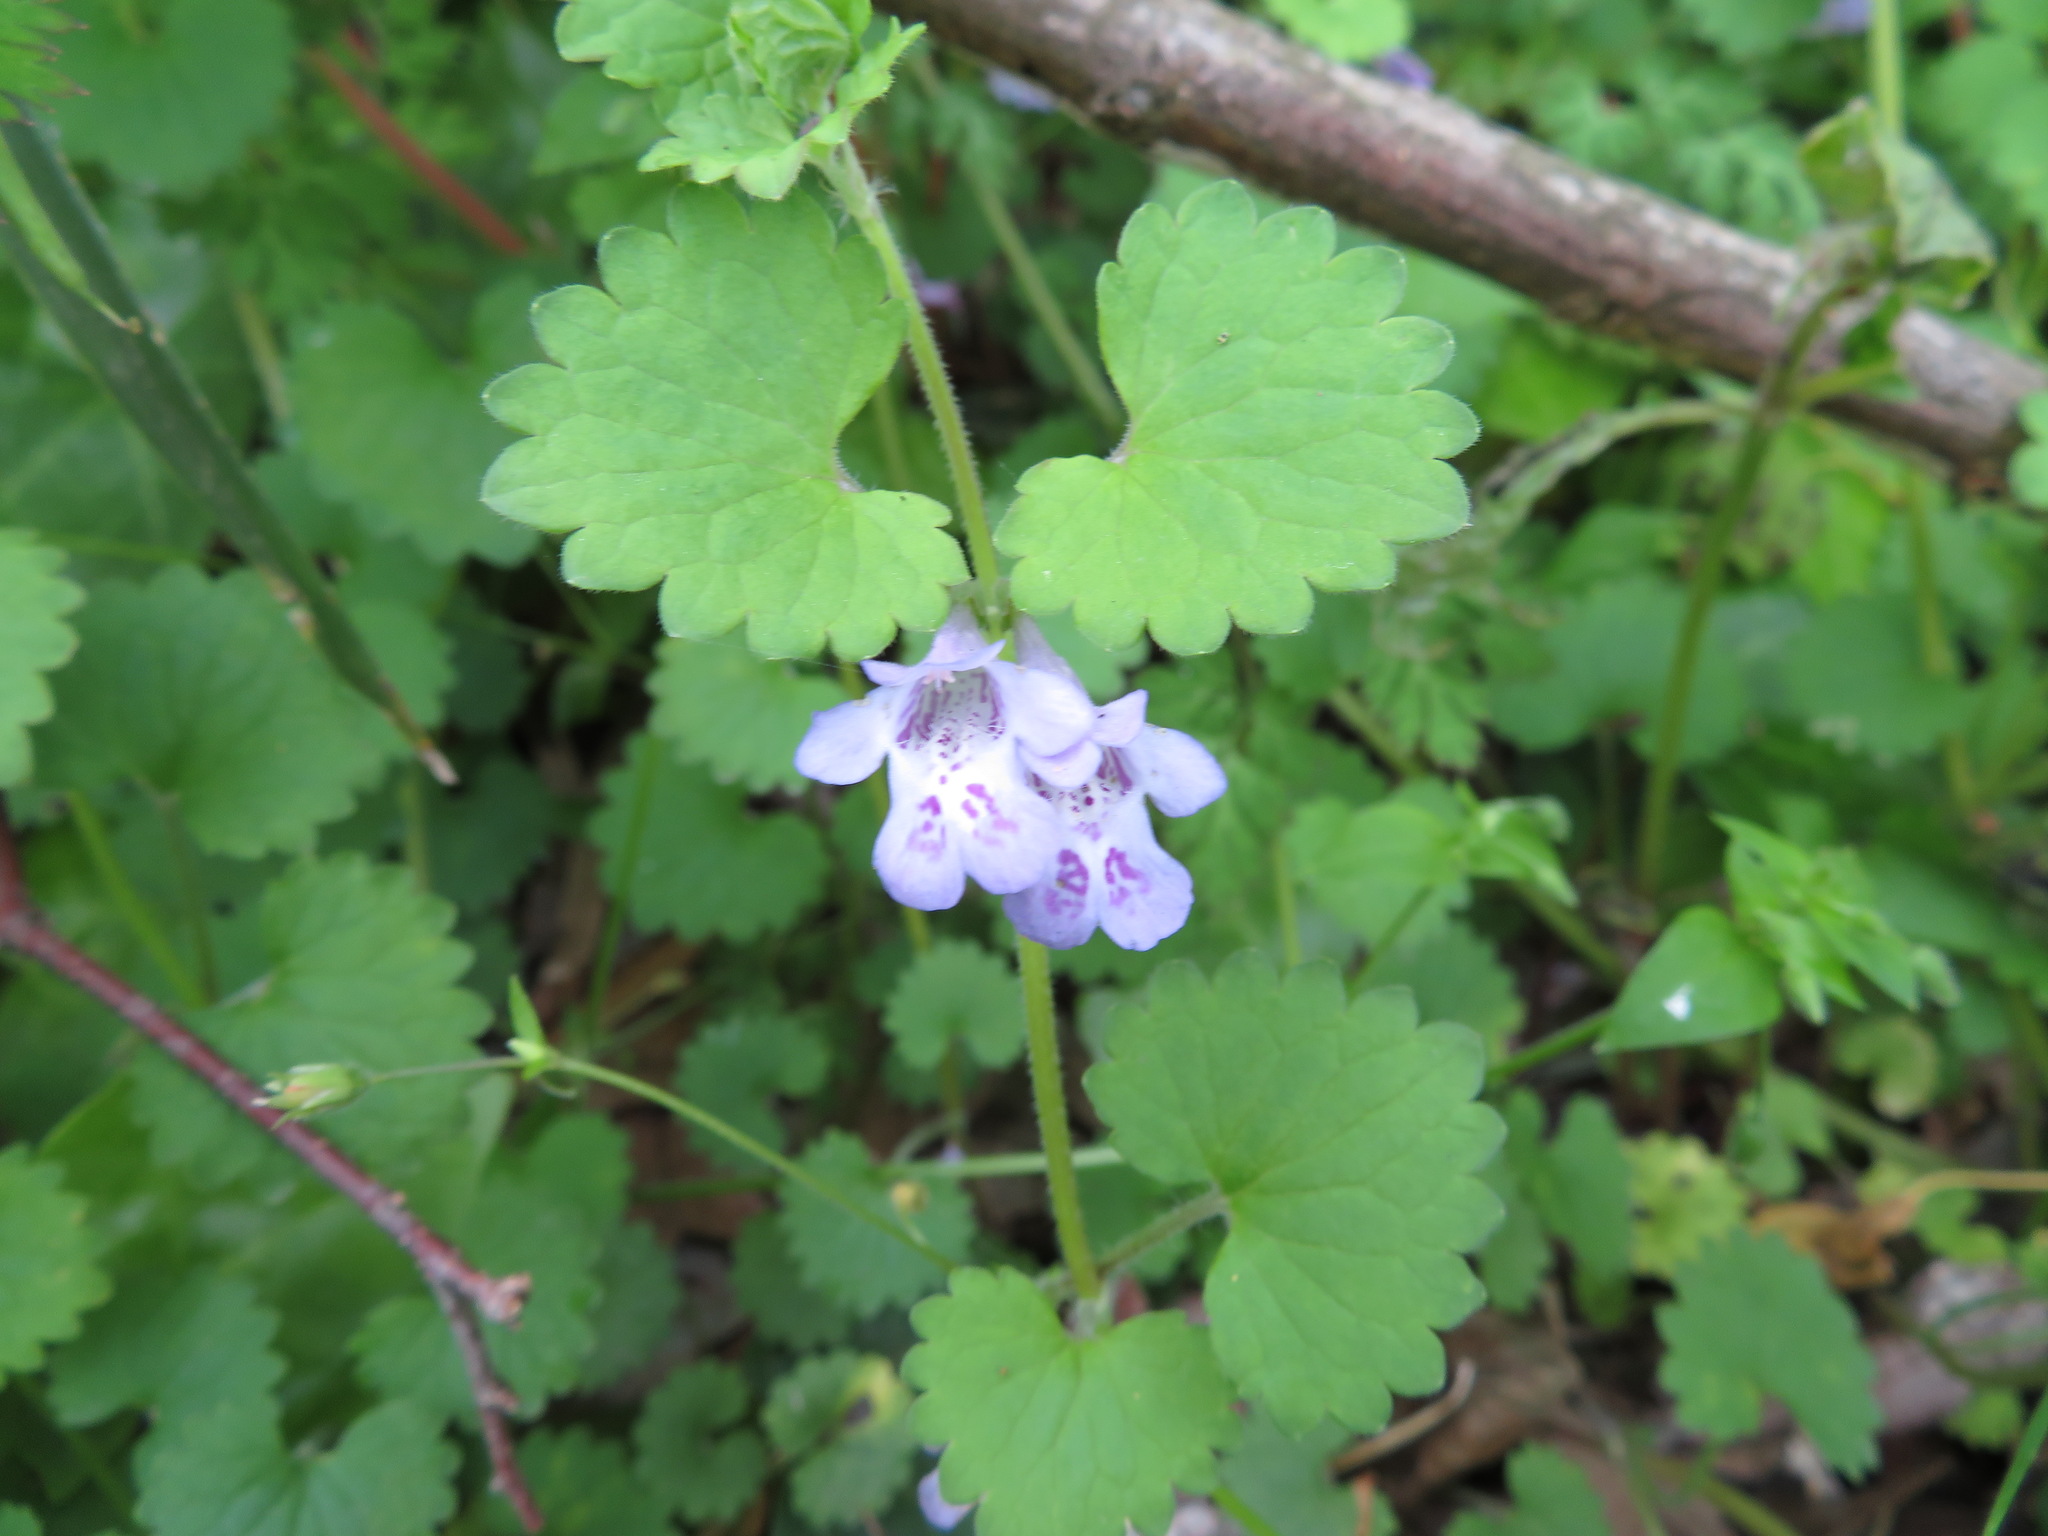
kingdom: Plantae
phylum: Tracheophyta
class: Magnoliopsida
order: Lamiales
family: Lamiaceae
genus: Glechoma
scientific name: Glechoma grandis
